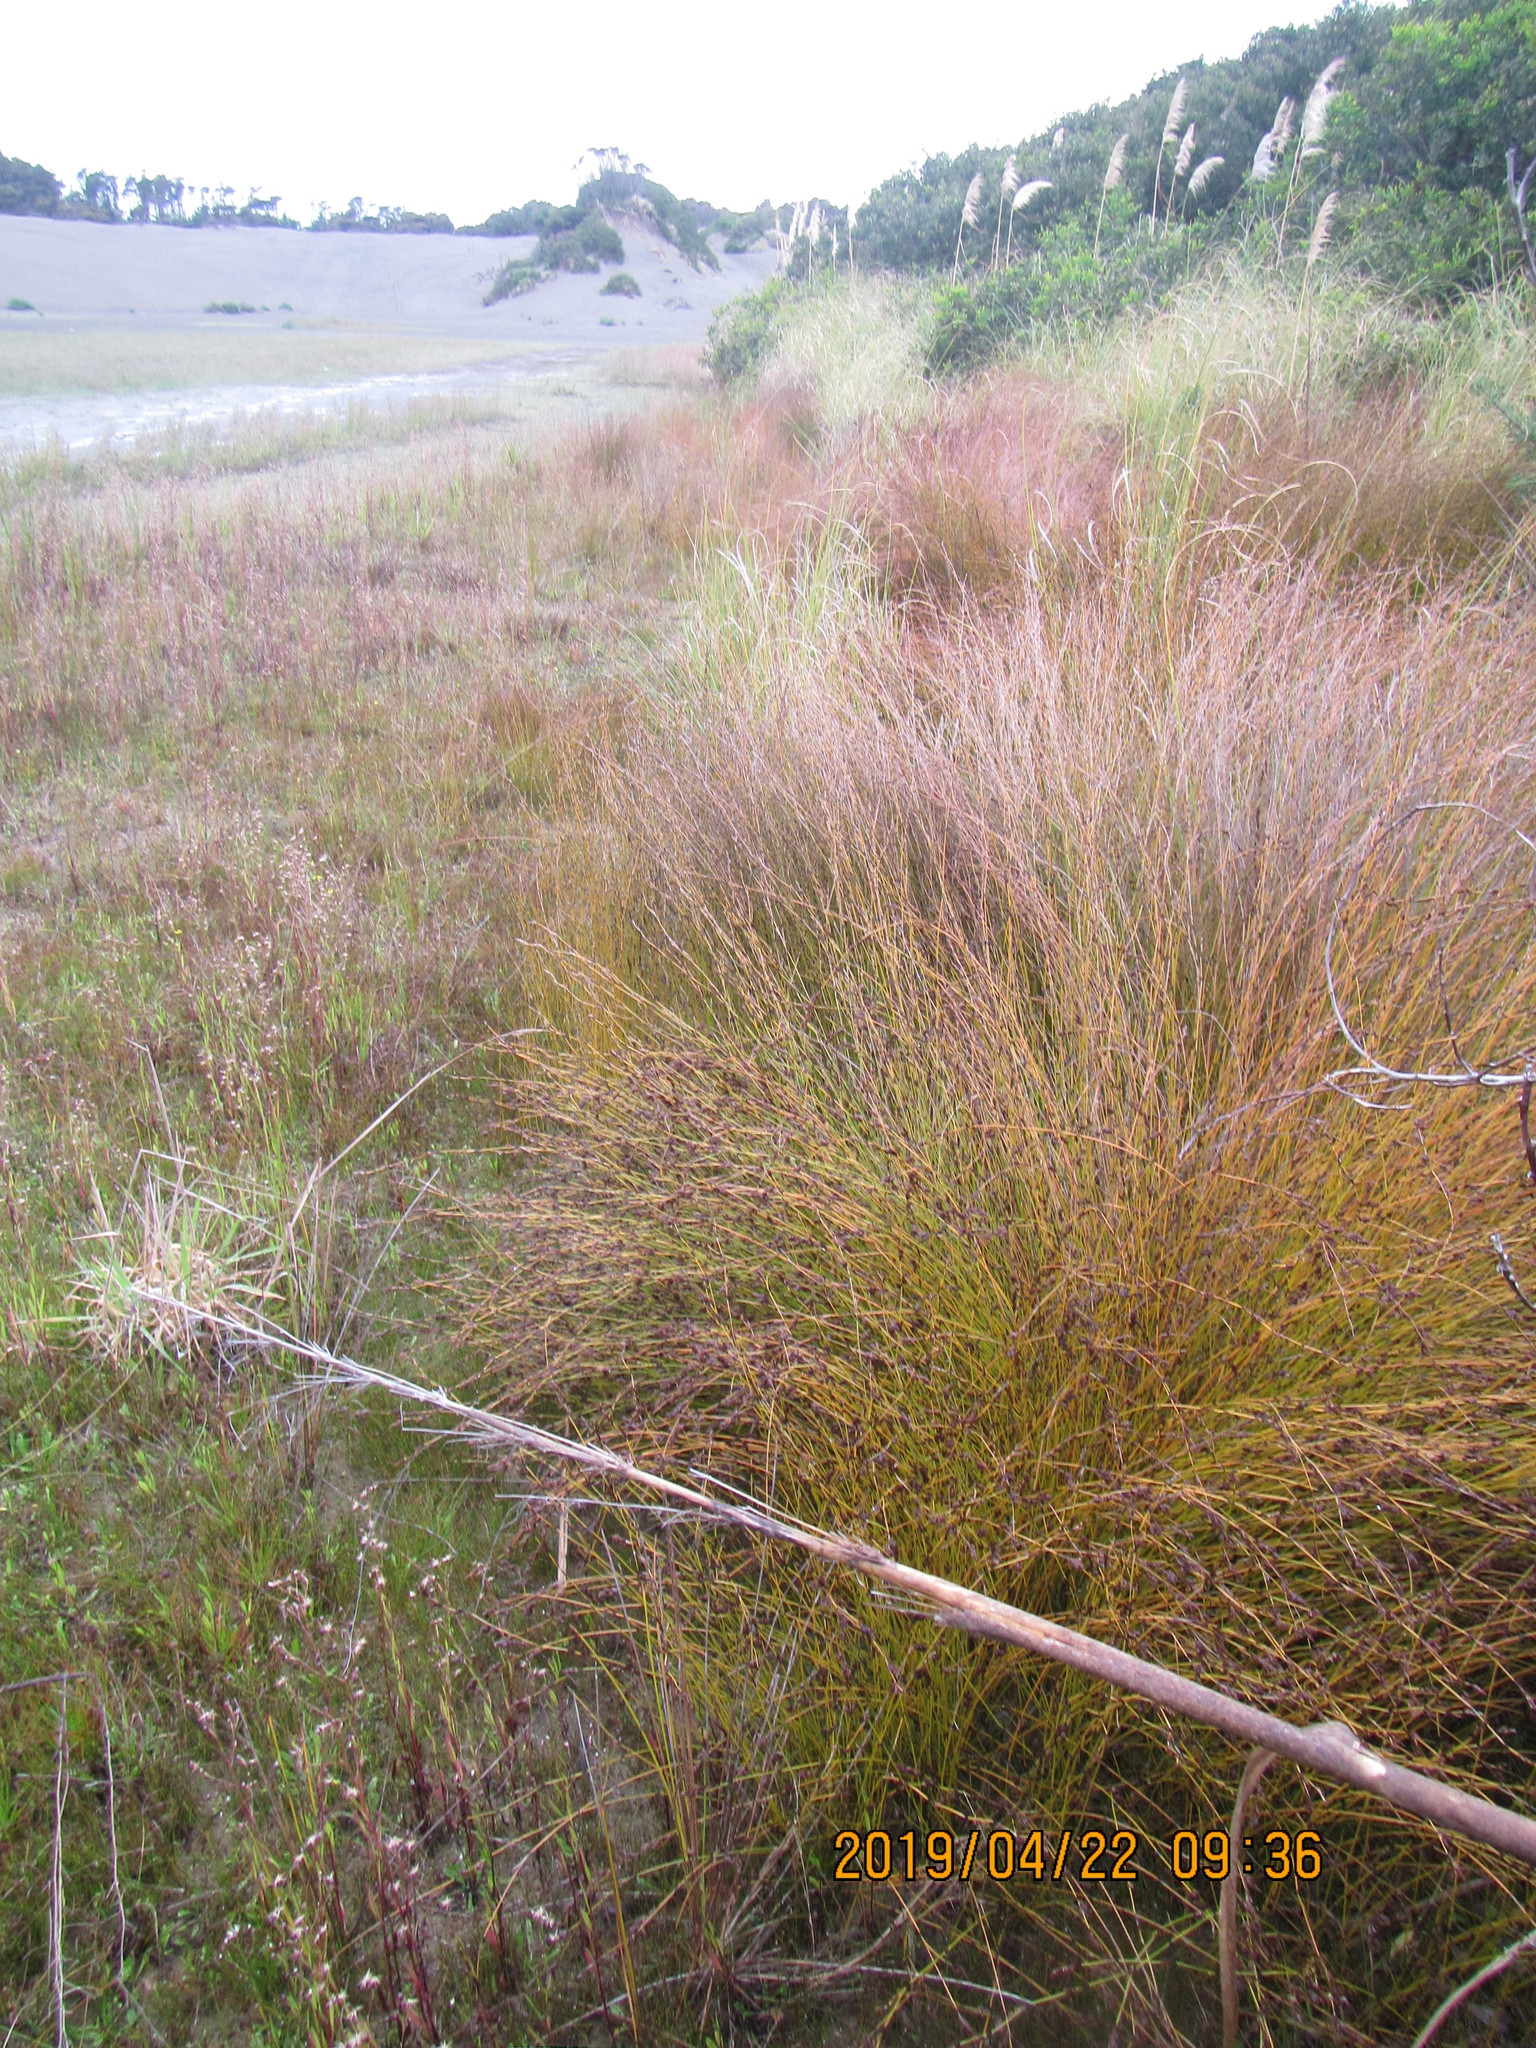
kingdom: Plantae
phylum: Tracheophyta
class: Liliopsida
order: Poales
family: Restionaceae
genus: Apodasmia
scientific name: Apodasmia similis
